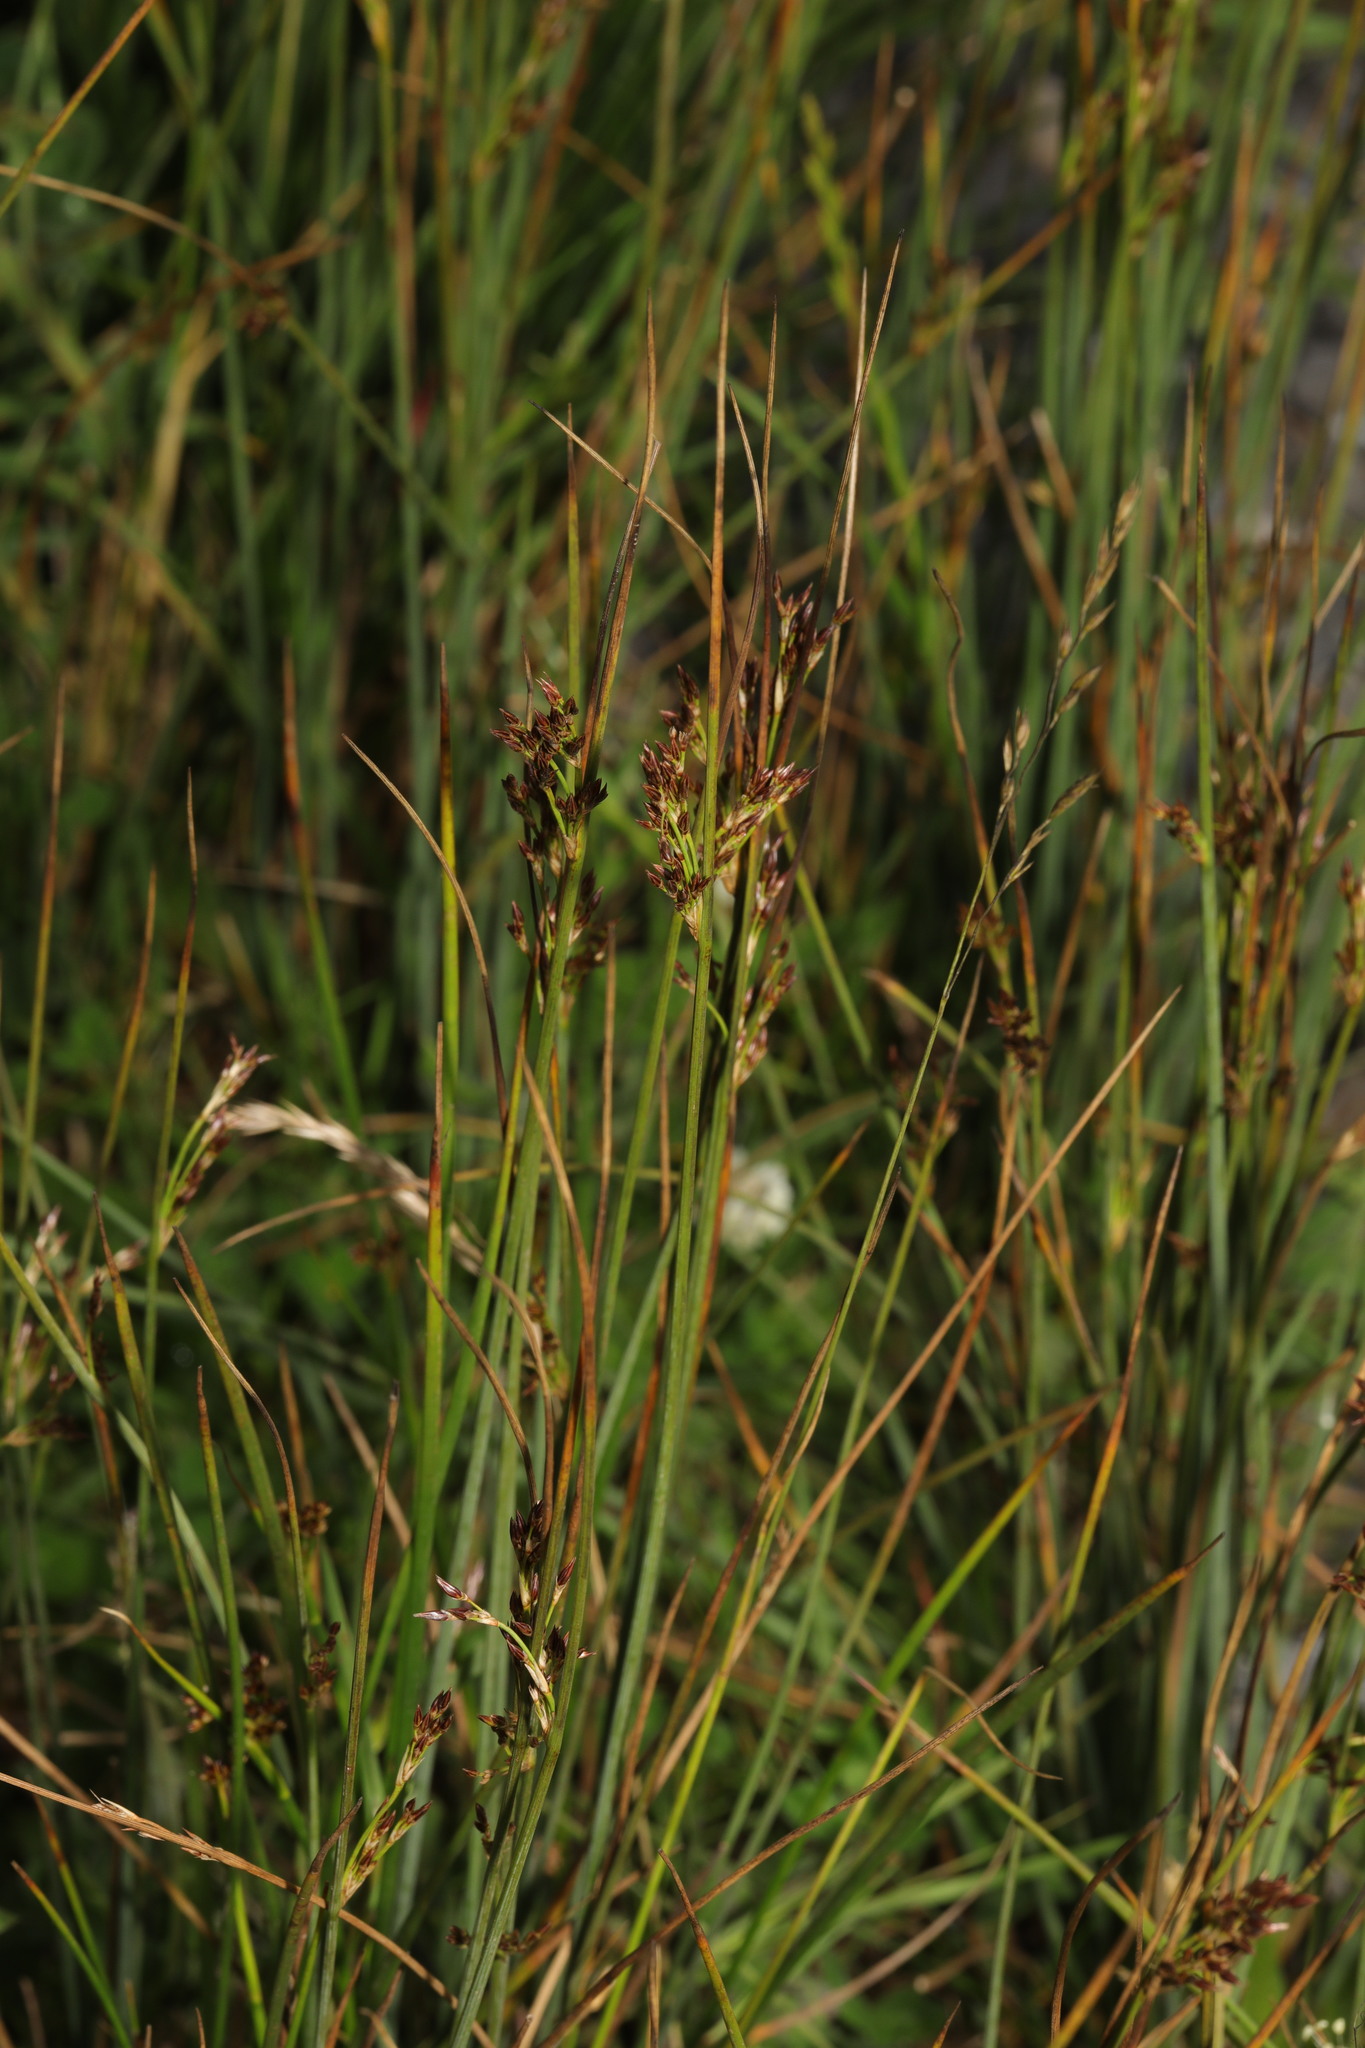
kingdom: Plantae
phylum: Tracheophyta
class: Liliopsida
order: Poales
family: Juncaceae
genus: Juncus
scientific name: Juncus inflexus
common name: Hard rush
